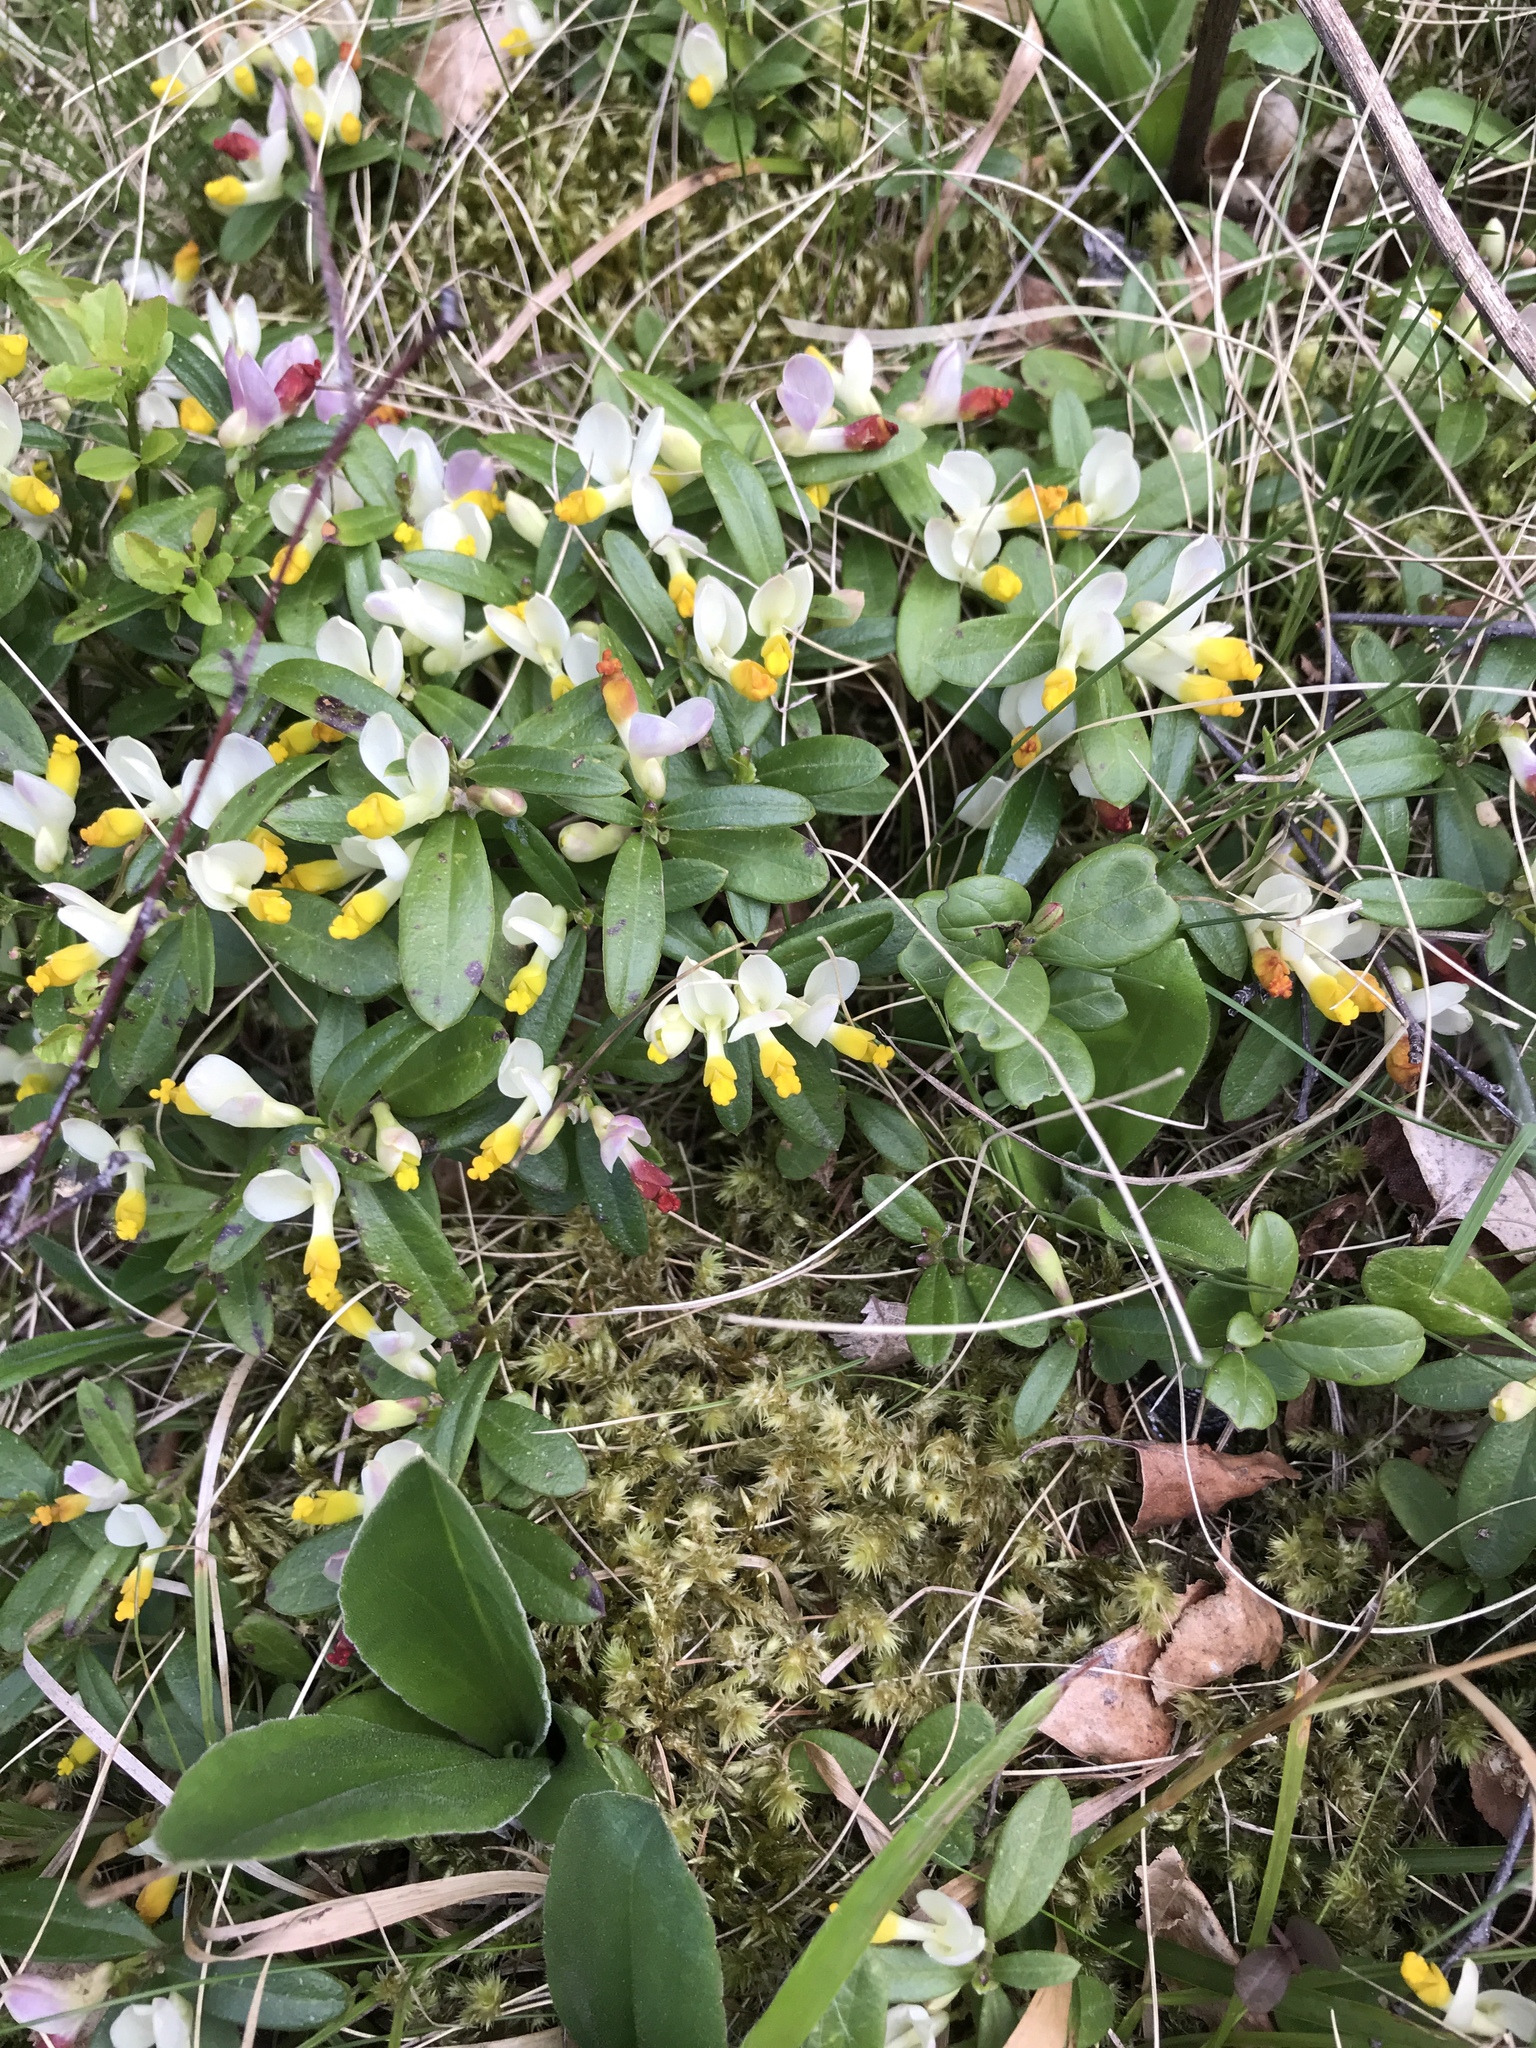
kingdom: Plantae
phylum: Tracheophyta
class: Magnoliopsida
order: Fabales
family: Polygalaceae
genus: Polygaloides
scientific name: Polygaloides chamaebuxus
